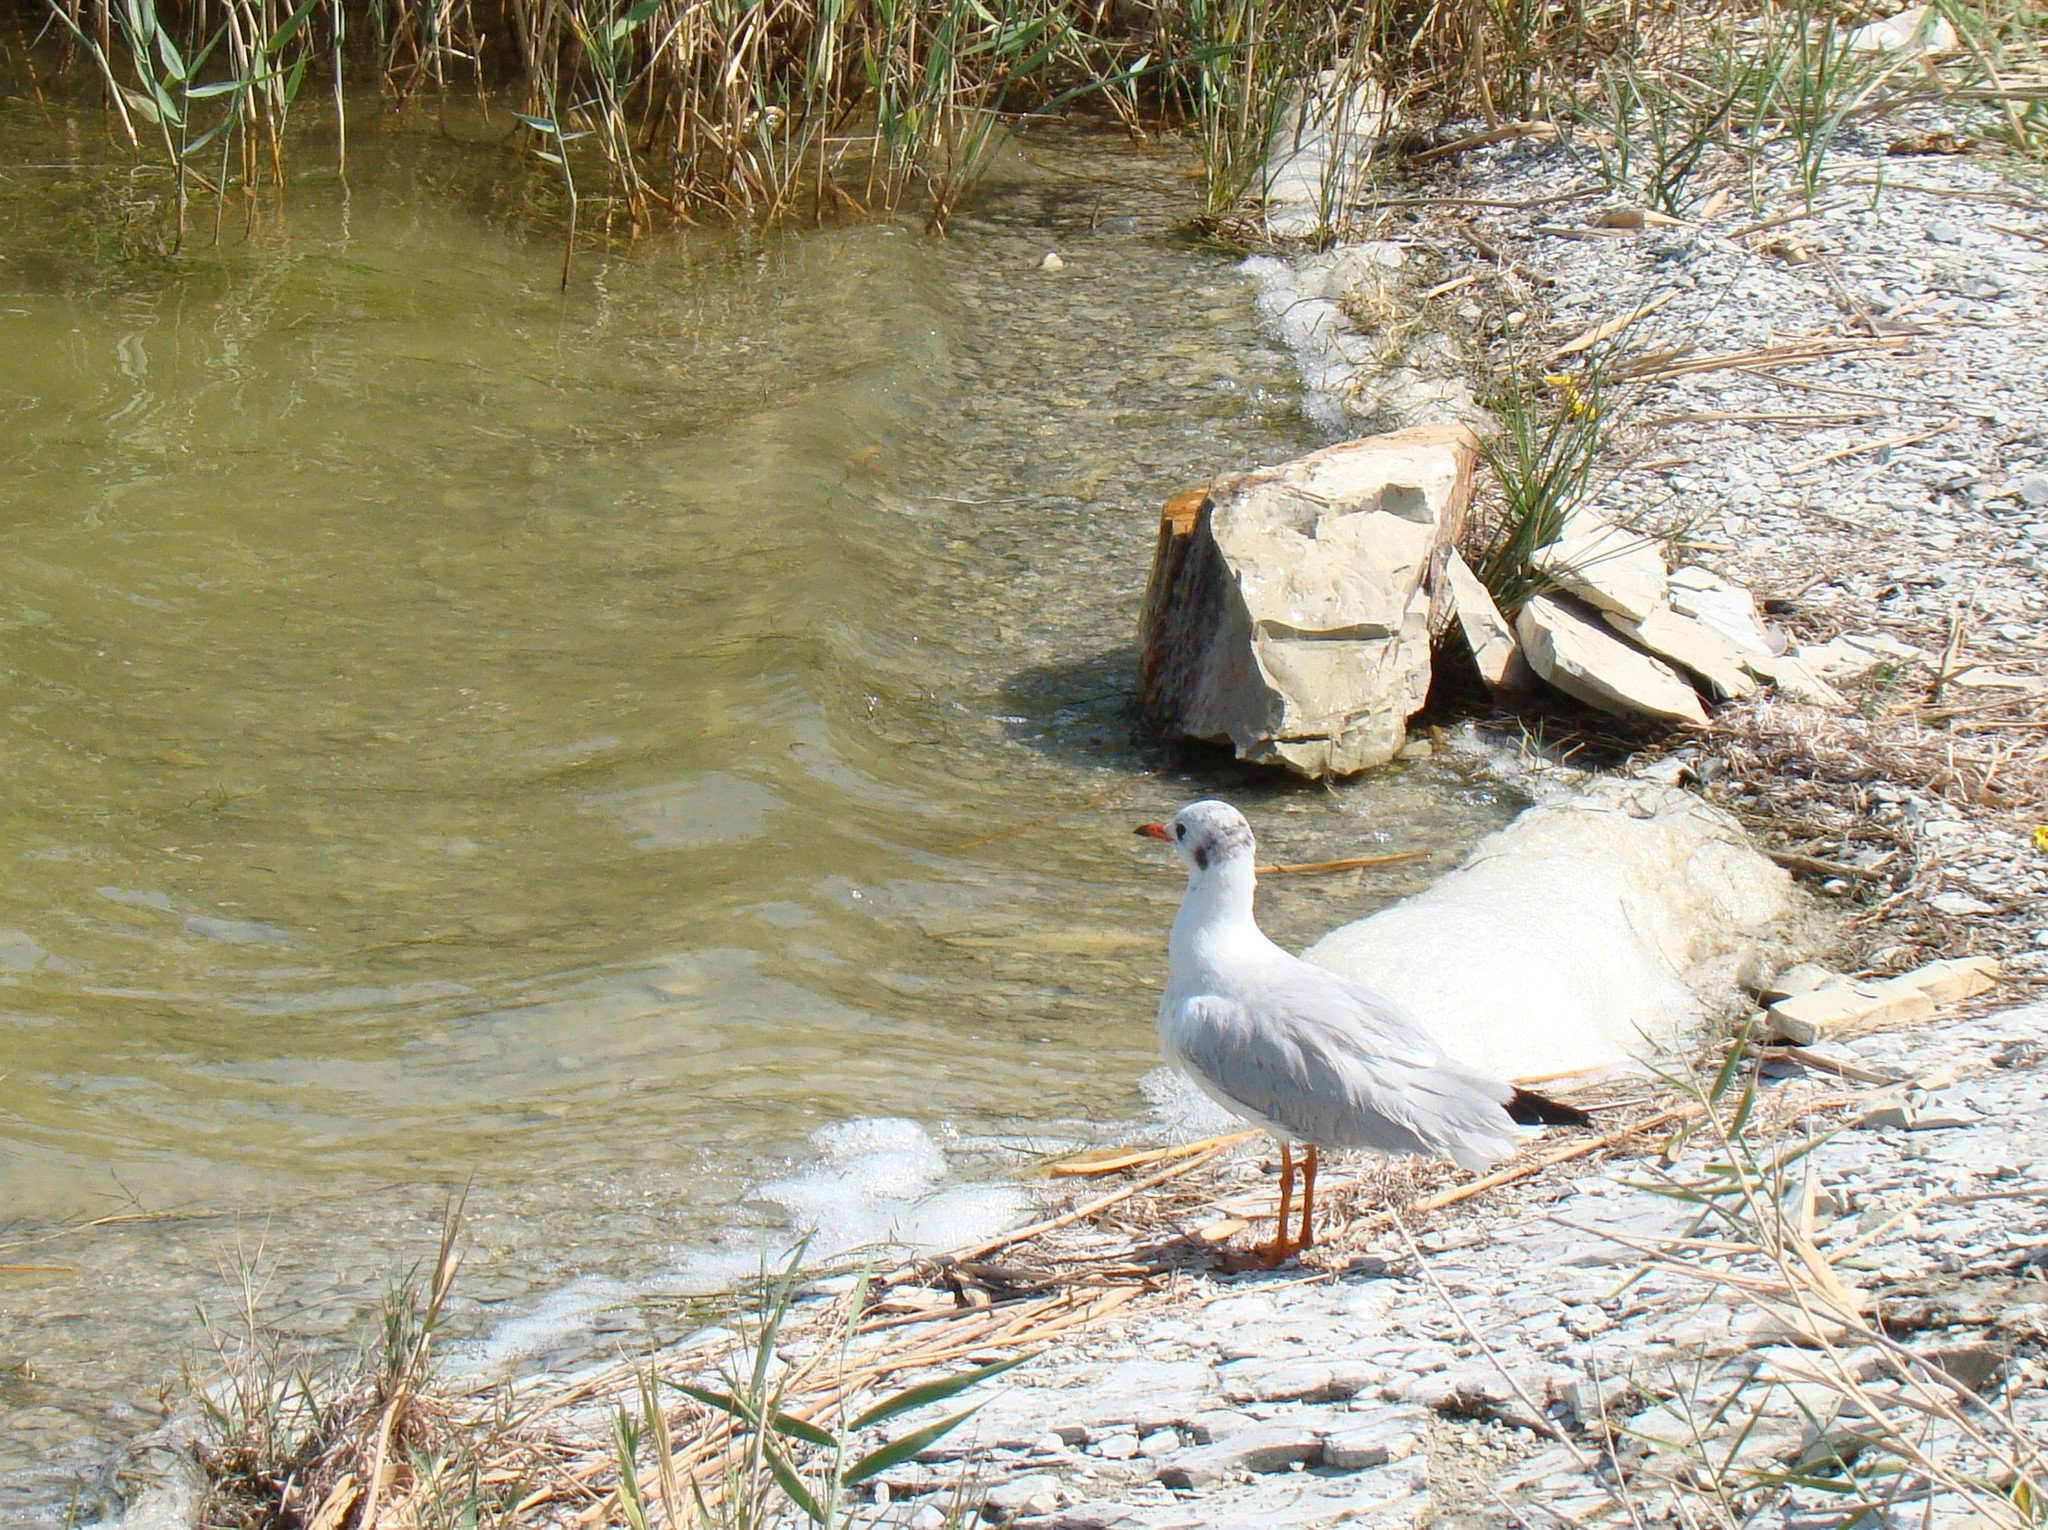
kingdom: Animalia
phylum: Chordata
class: Aves
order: Charadriiformes
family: Laridae
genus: Chroicocephalus
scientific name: Chroicocephalus ridibundus
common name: Black-headed gull
